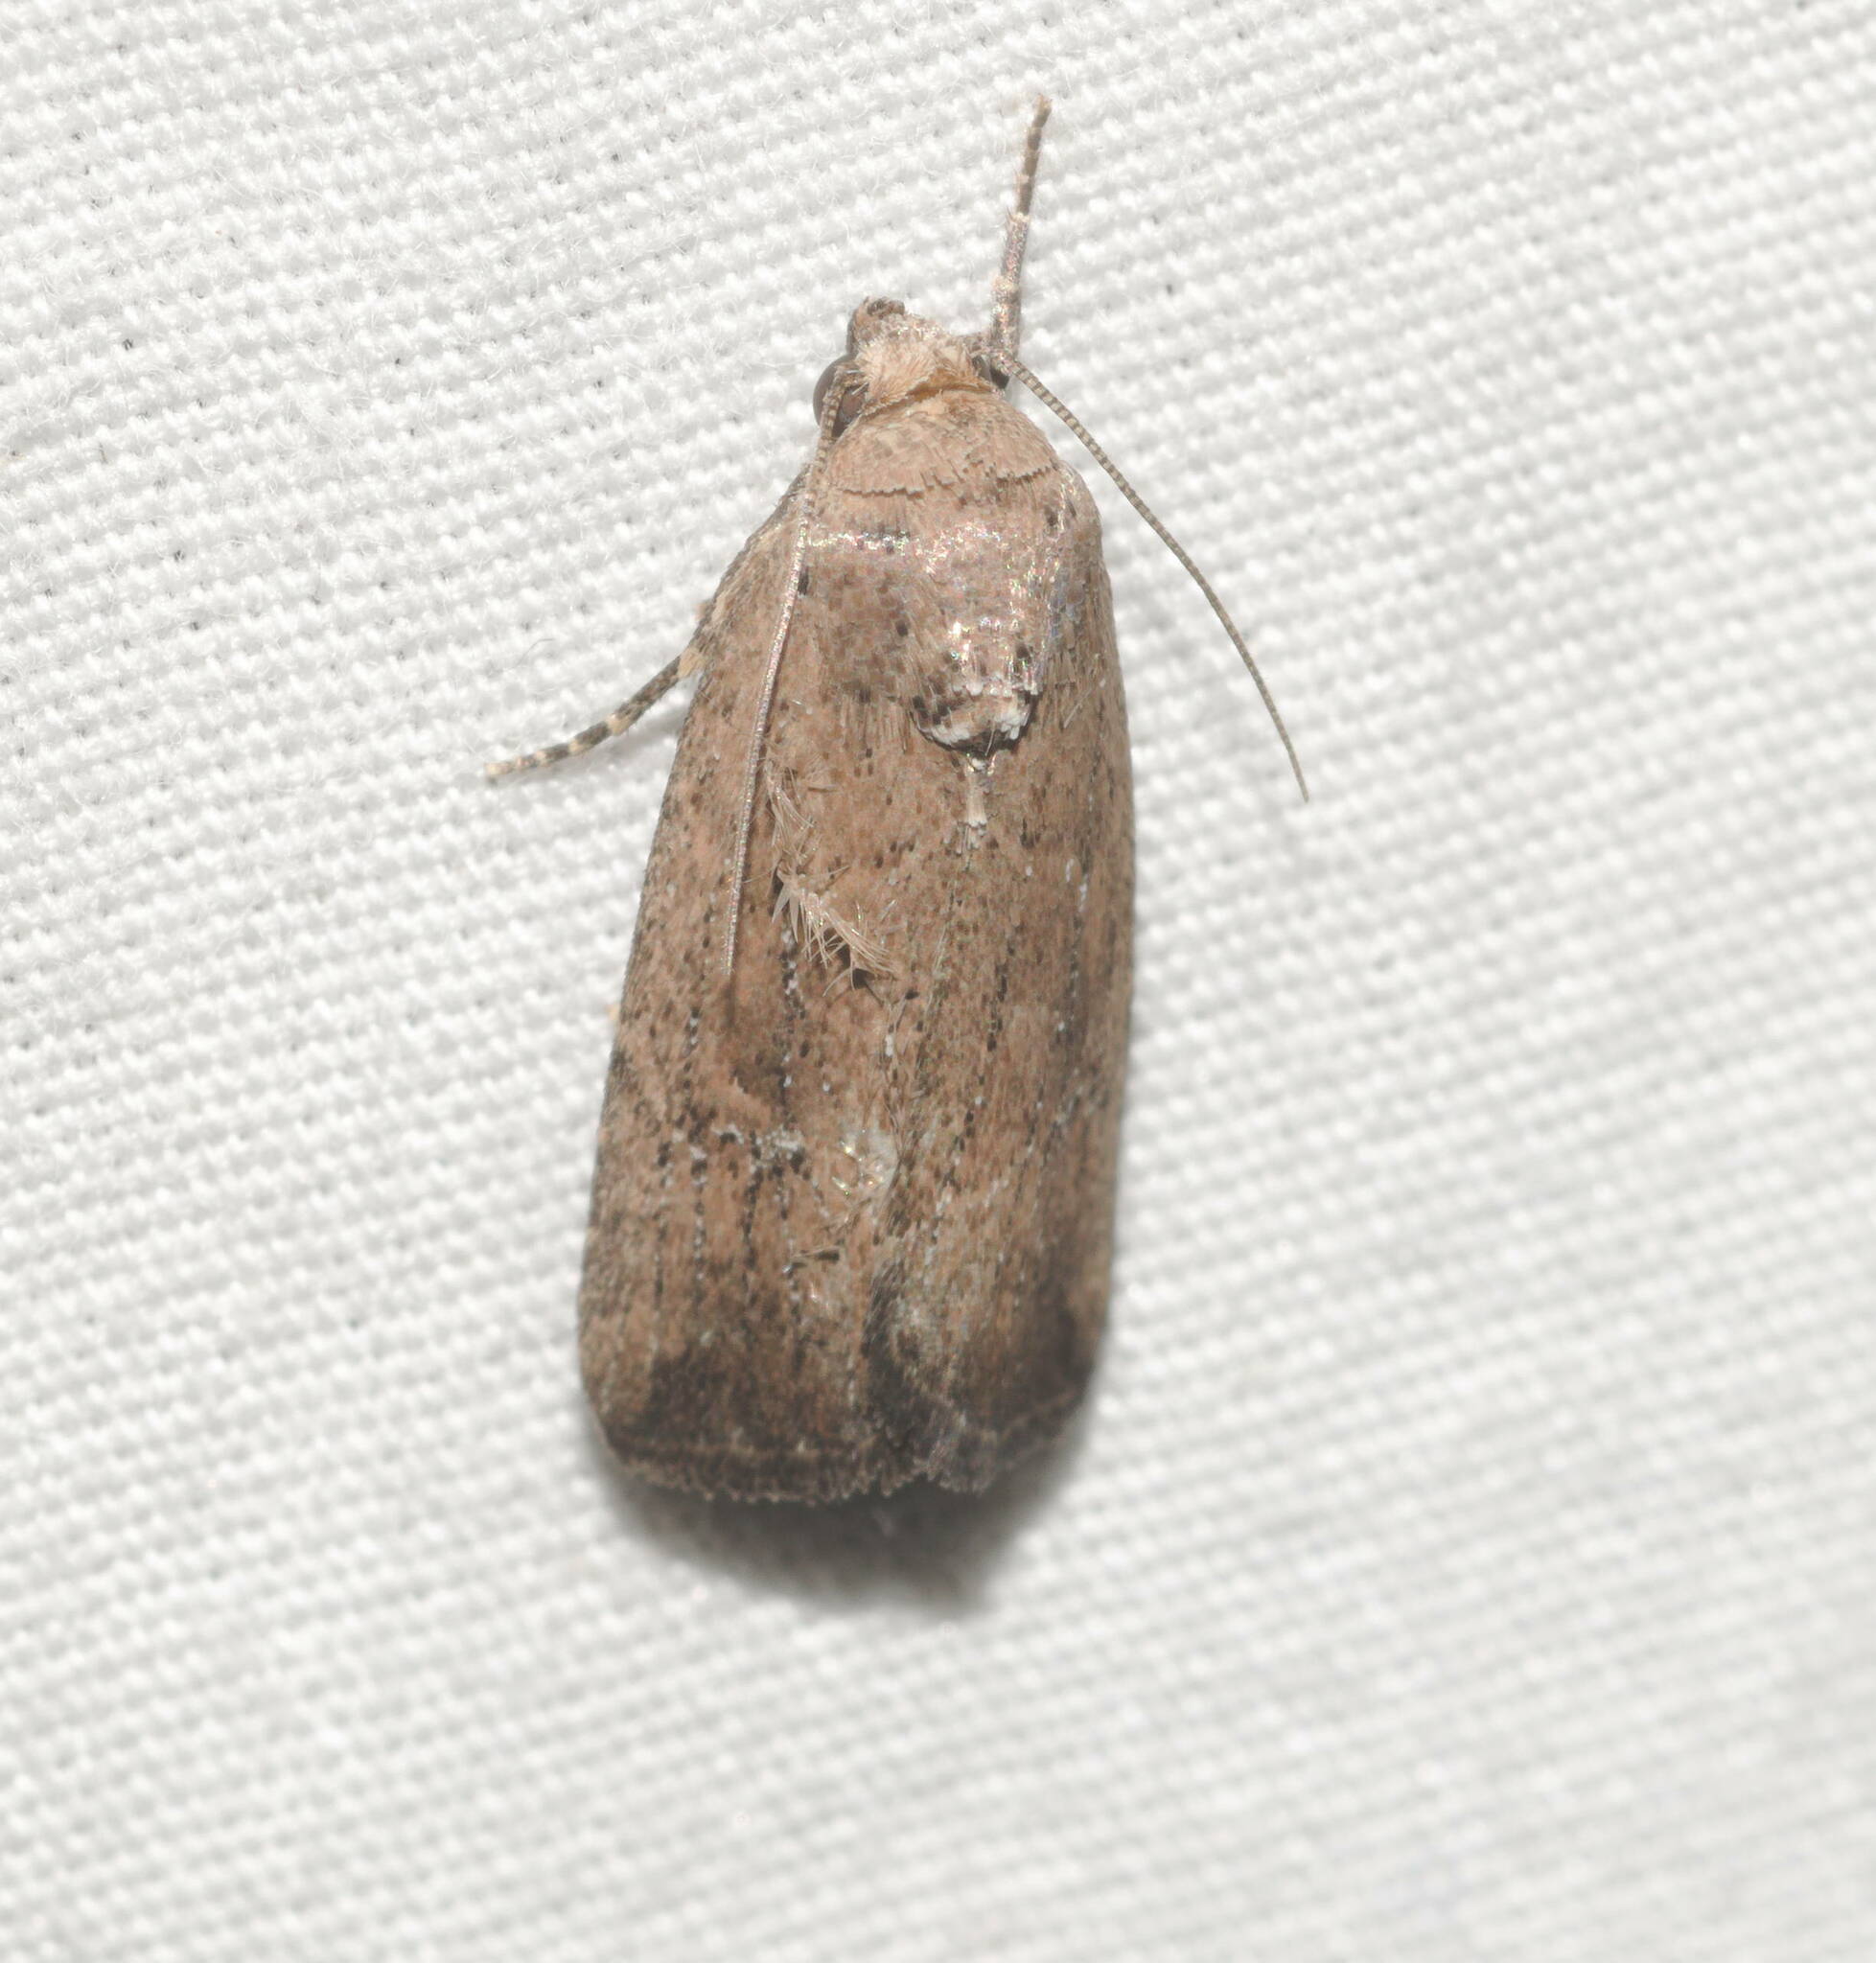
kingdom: Animalia
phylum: Arthropoda
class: Insecta
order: Lepidoptera
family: Noctuidae
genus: Elaphria
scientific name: Elaphria nucicolora
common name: Sugarcane midget moth
